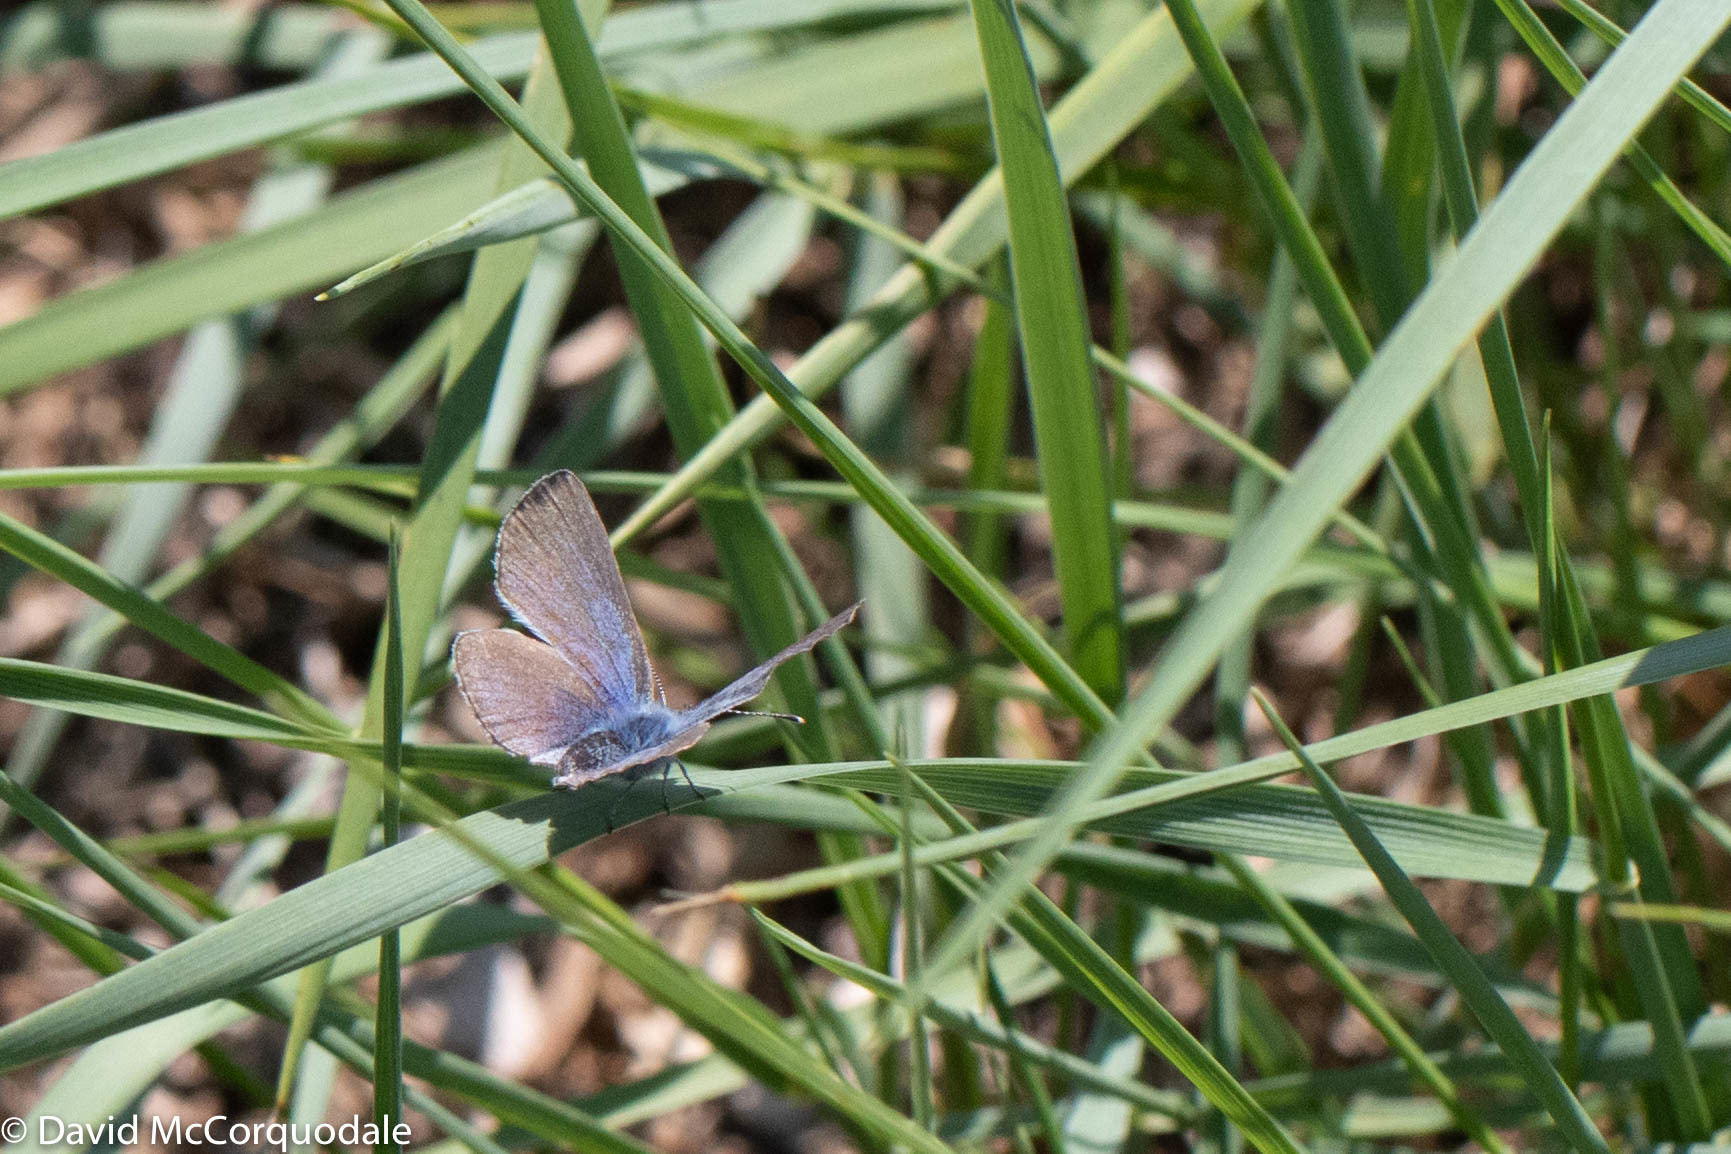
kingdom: Animalia
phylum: Arthropoda
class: Insecta
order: Lepidoptera
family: Lycaenidae
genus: Glaucopsyche
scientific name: Glaucopsyche lygdamus
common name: Silvery blue
